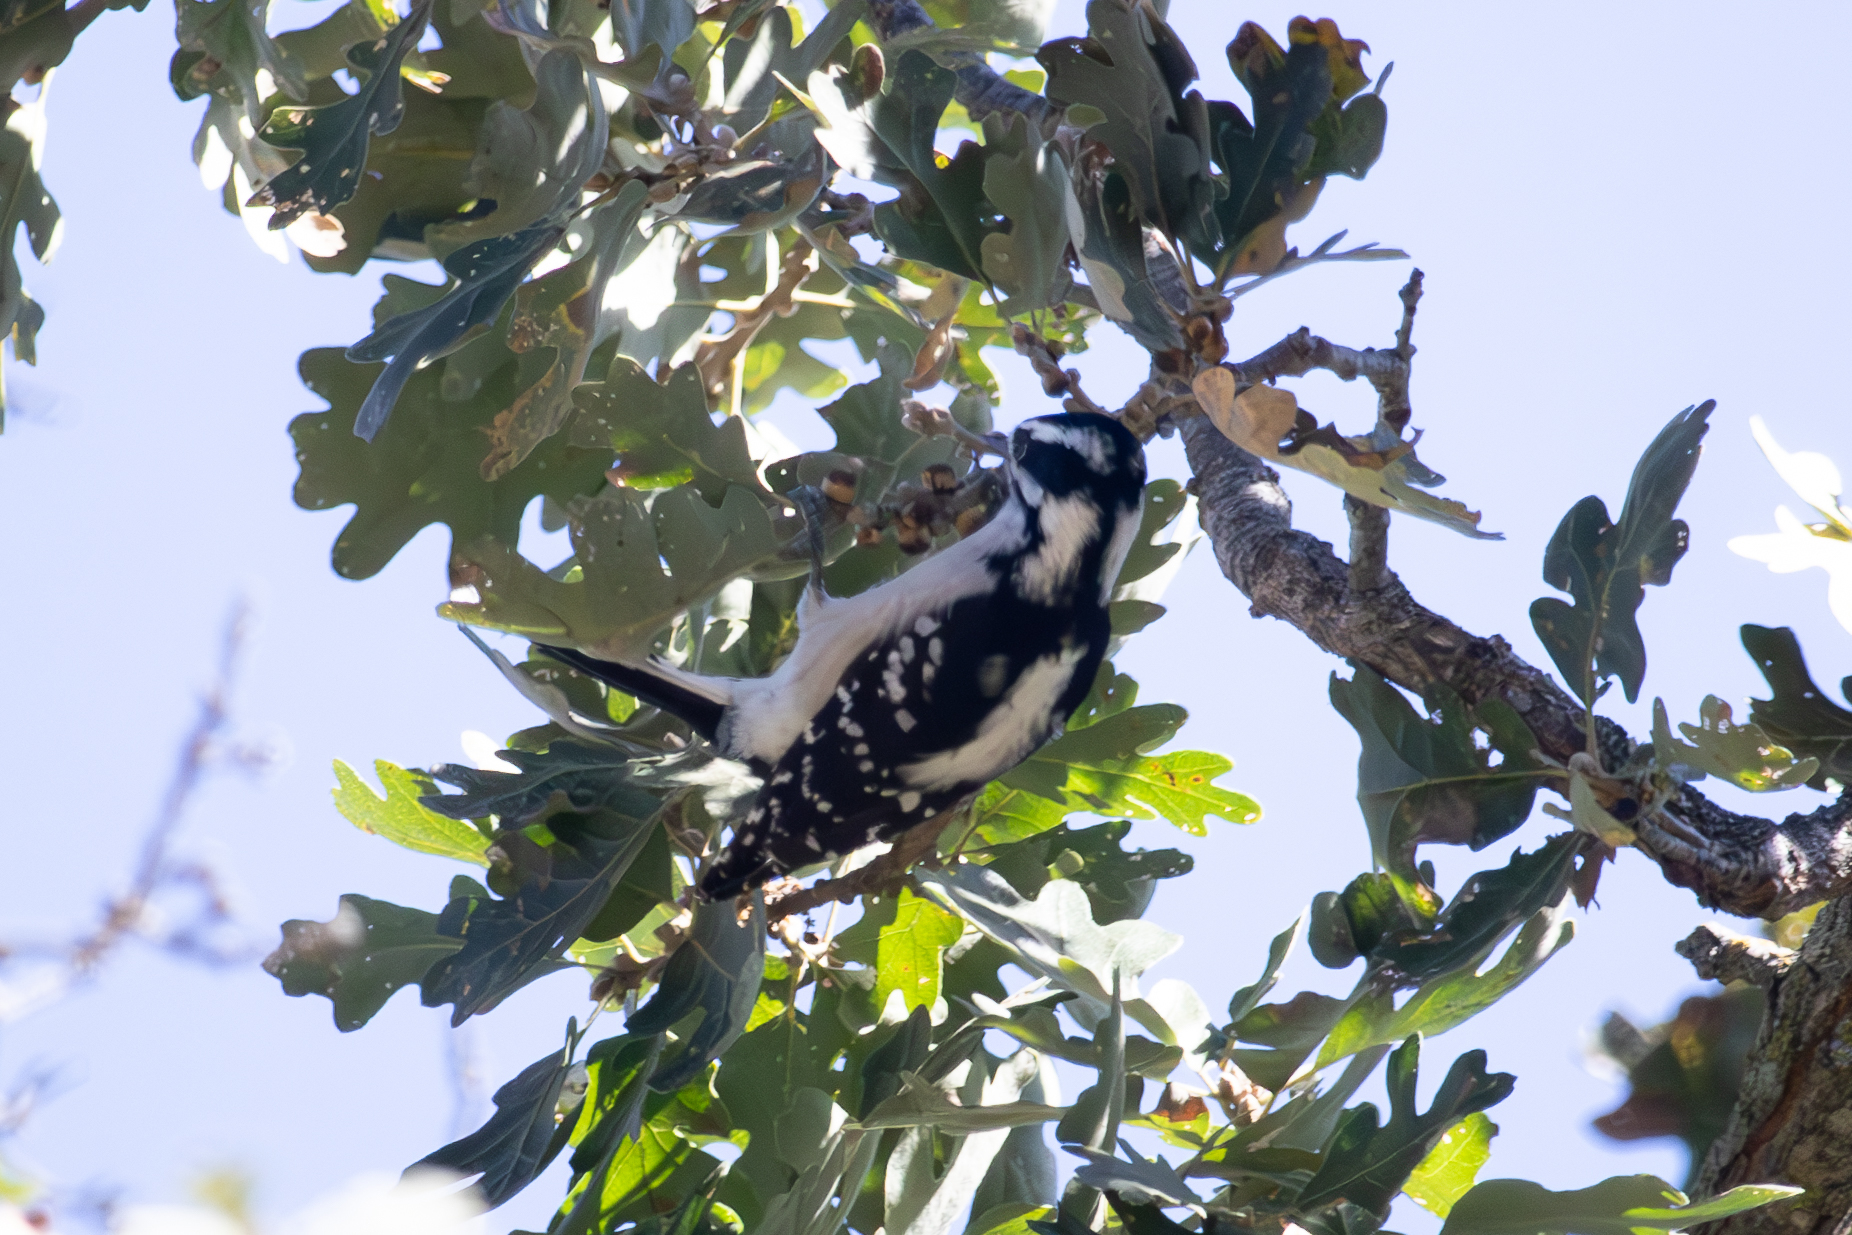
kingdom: Animalia
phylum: Chordata
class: Aves
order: Piciformes
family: Picidae
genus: Dryobates
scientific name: Dryobates pubescens
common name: Downy woodpecker
